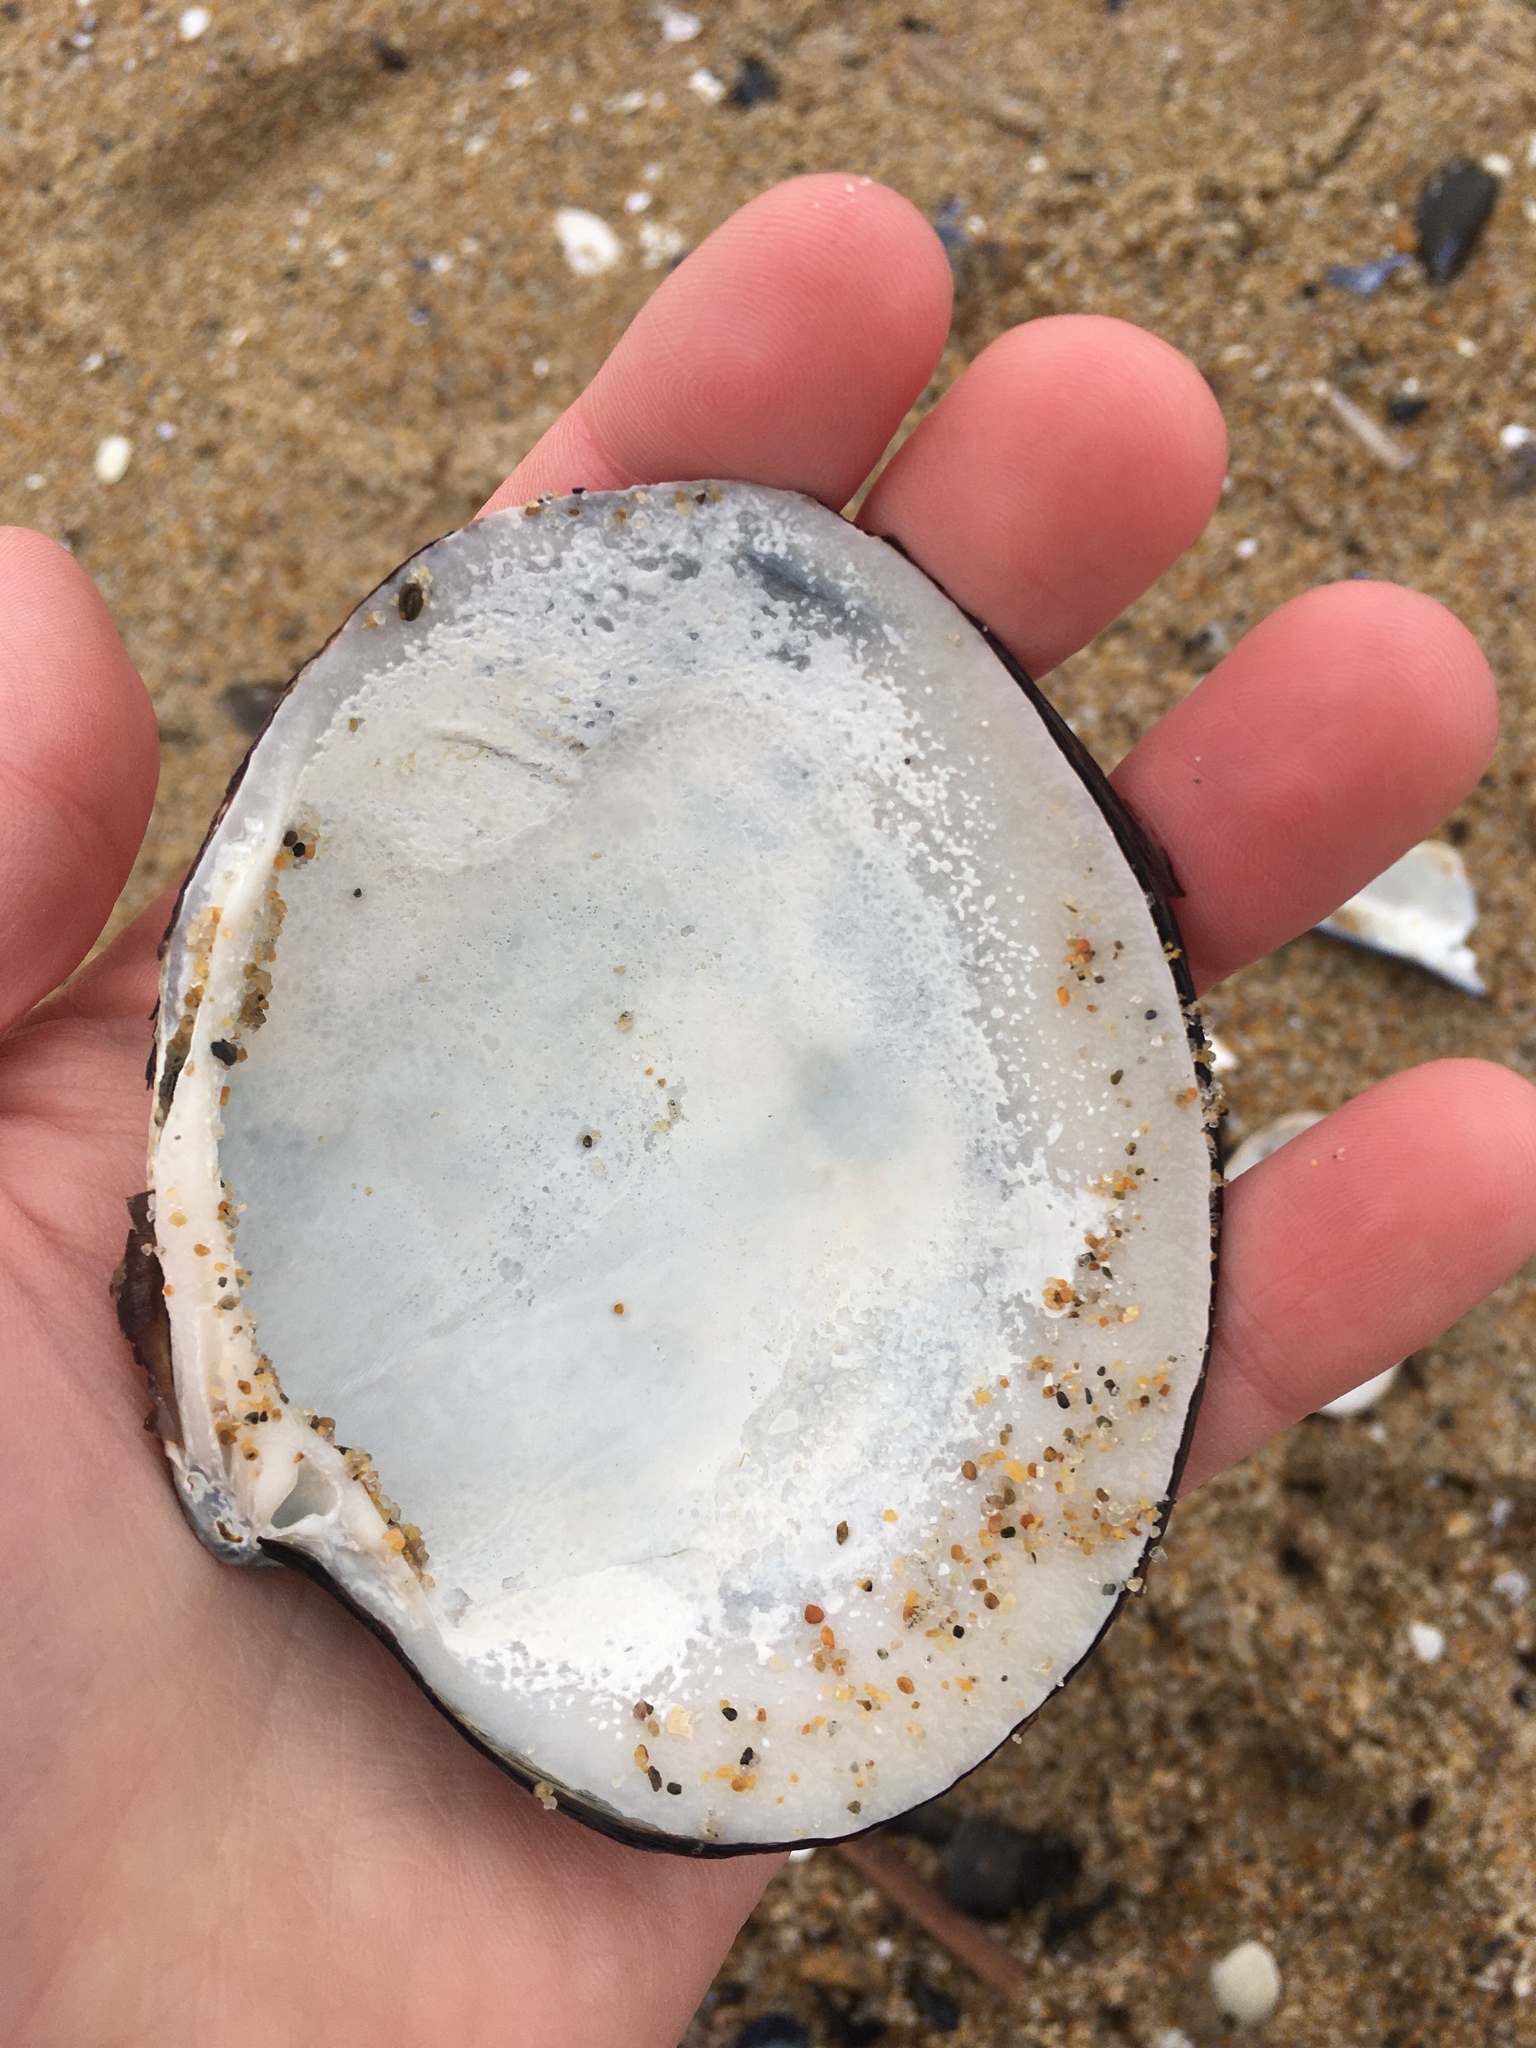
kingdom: Animalia
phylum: Mollusca
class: Bivalvia
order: Venerida
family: Arcticidae
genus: Arctica
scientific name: Arctica islandica
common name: Icelandic cyprine
